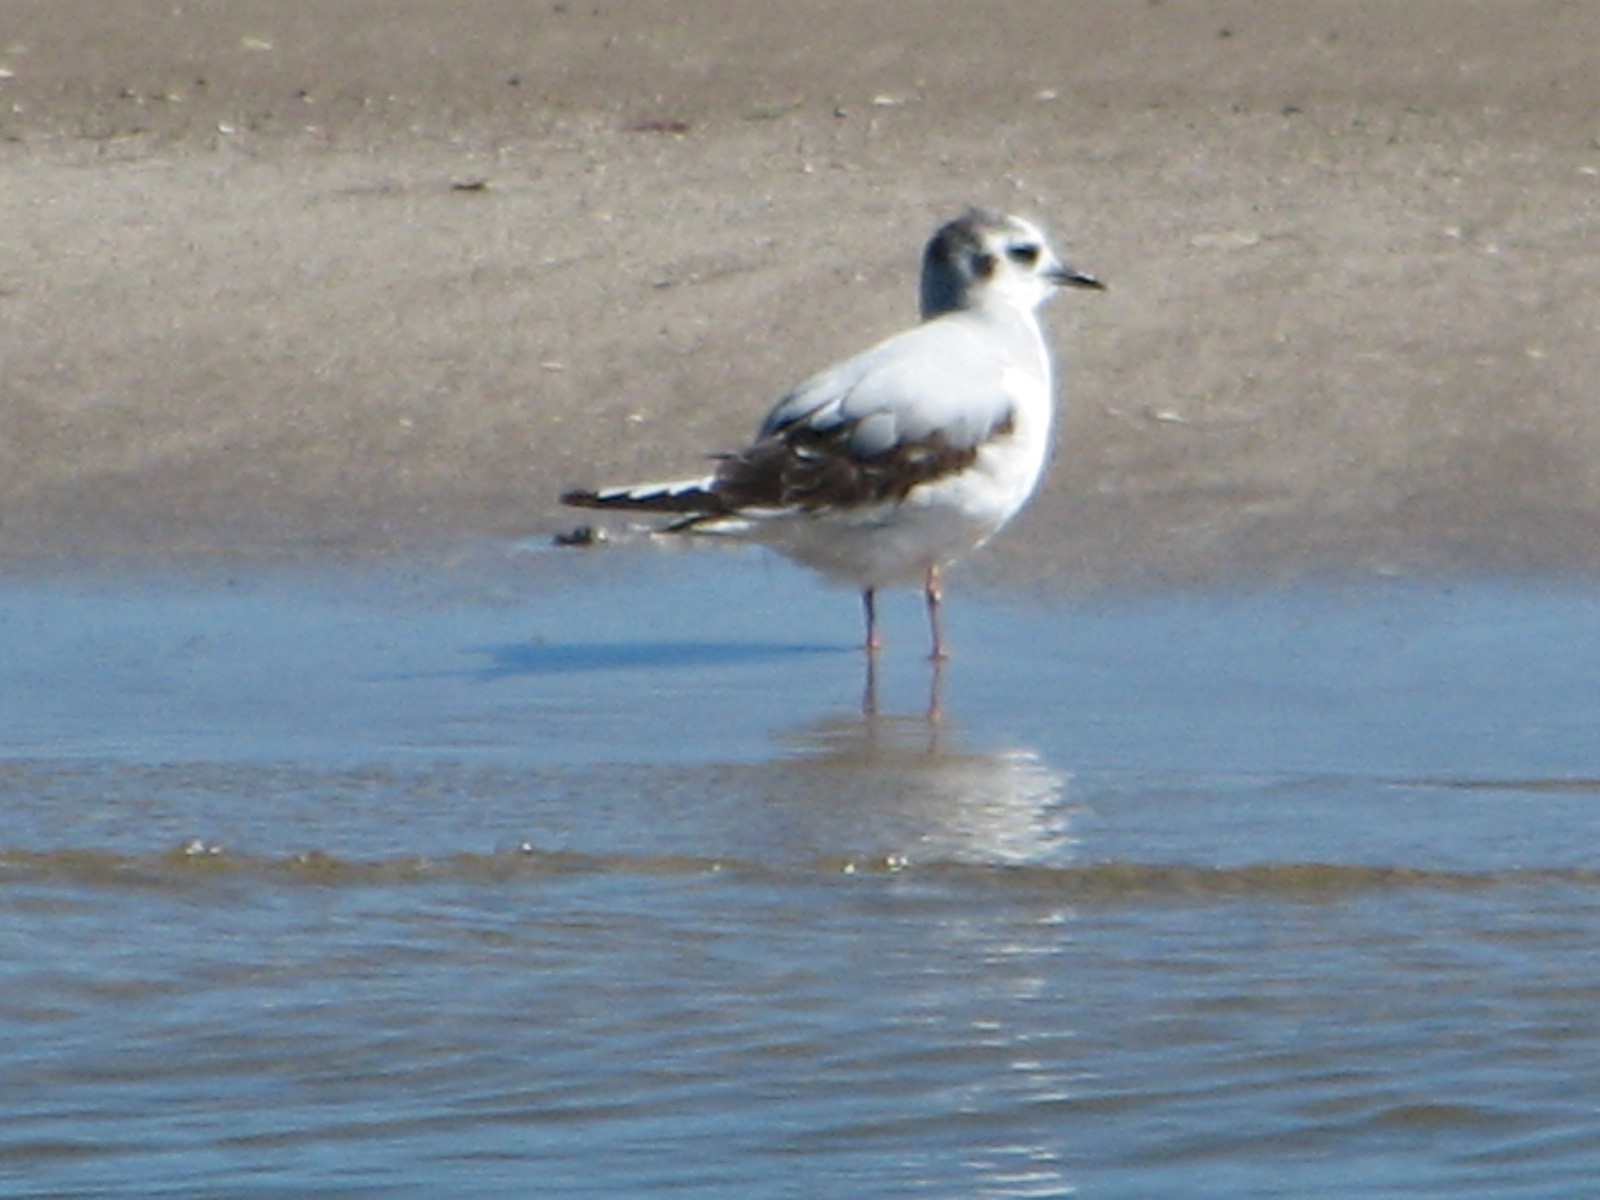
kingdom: Animalia
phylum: Chordata
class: Aves
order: Charadriiformes
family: Laridae
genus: Hydrocoloeus
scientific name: Hydrocoloeus minutus
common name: Little gull
